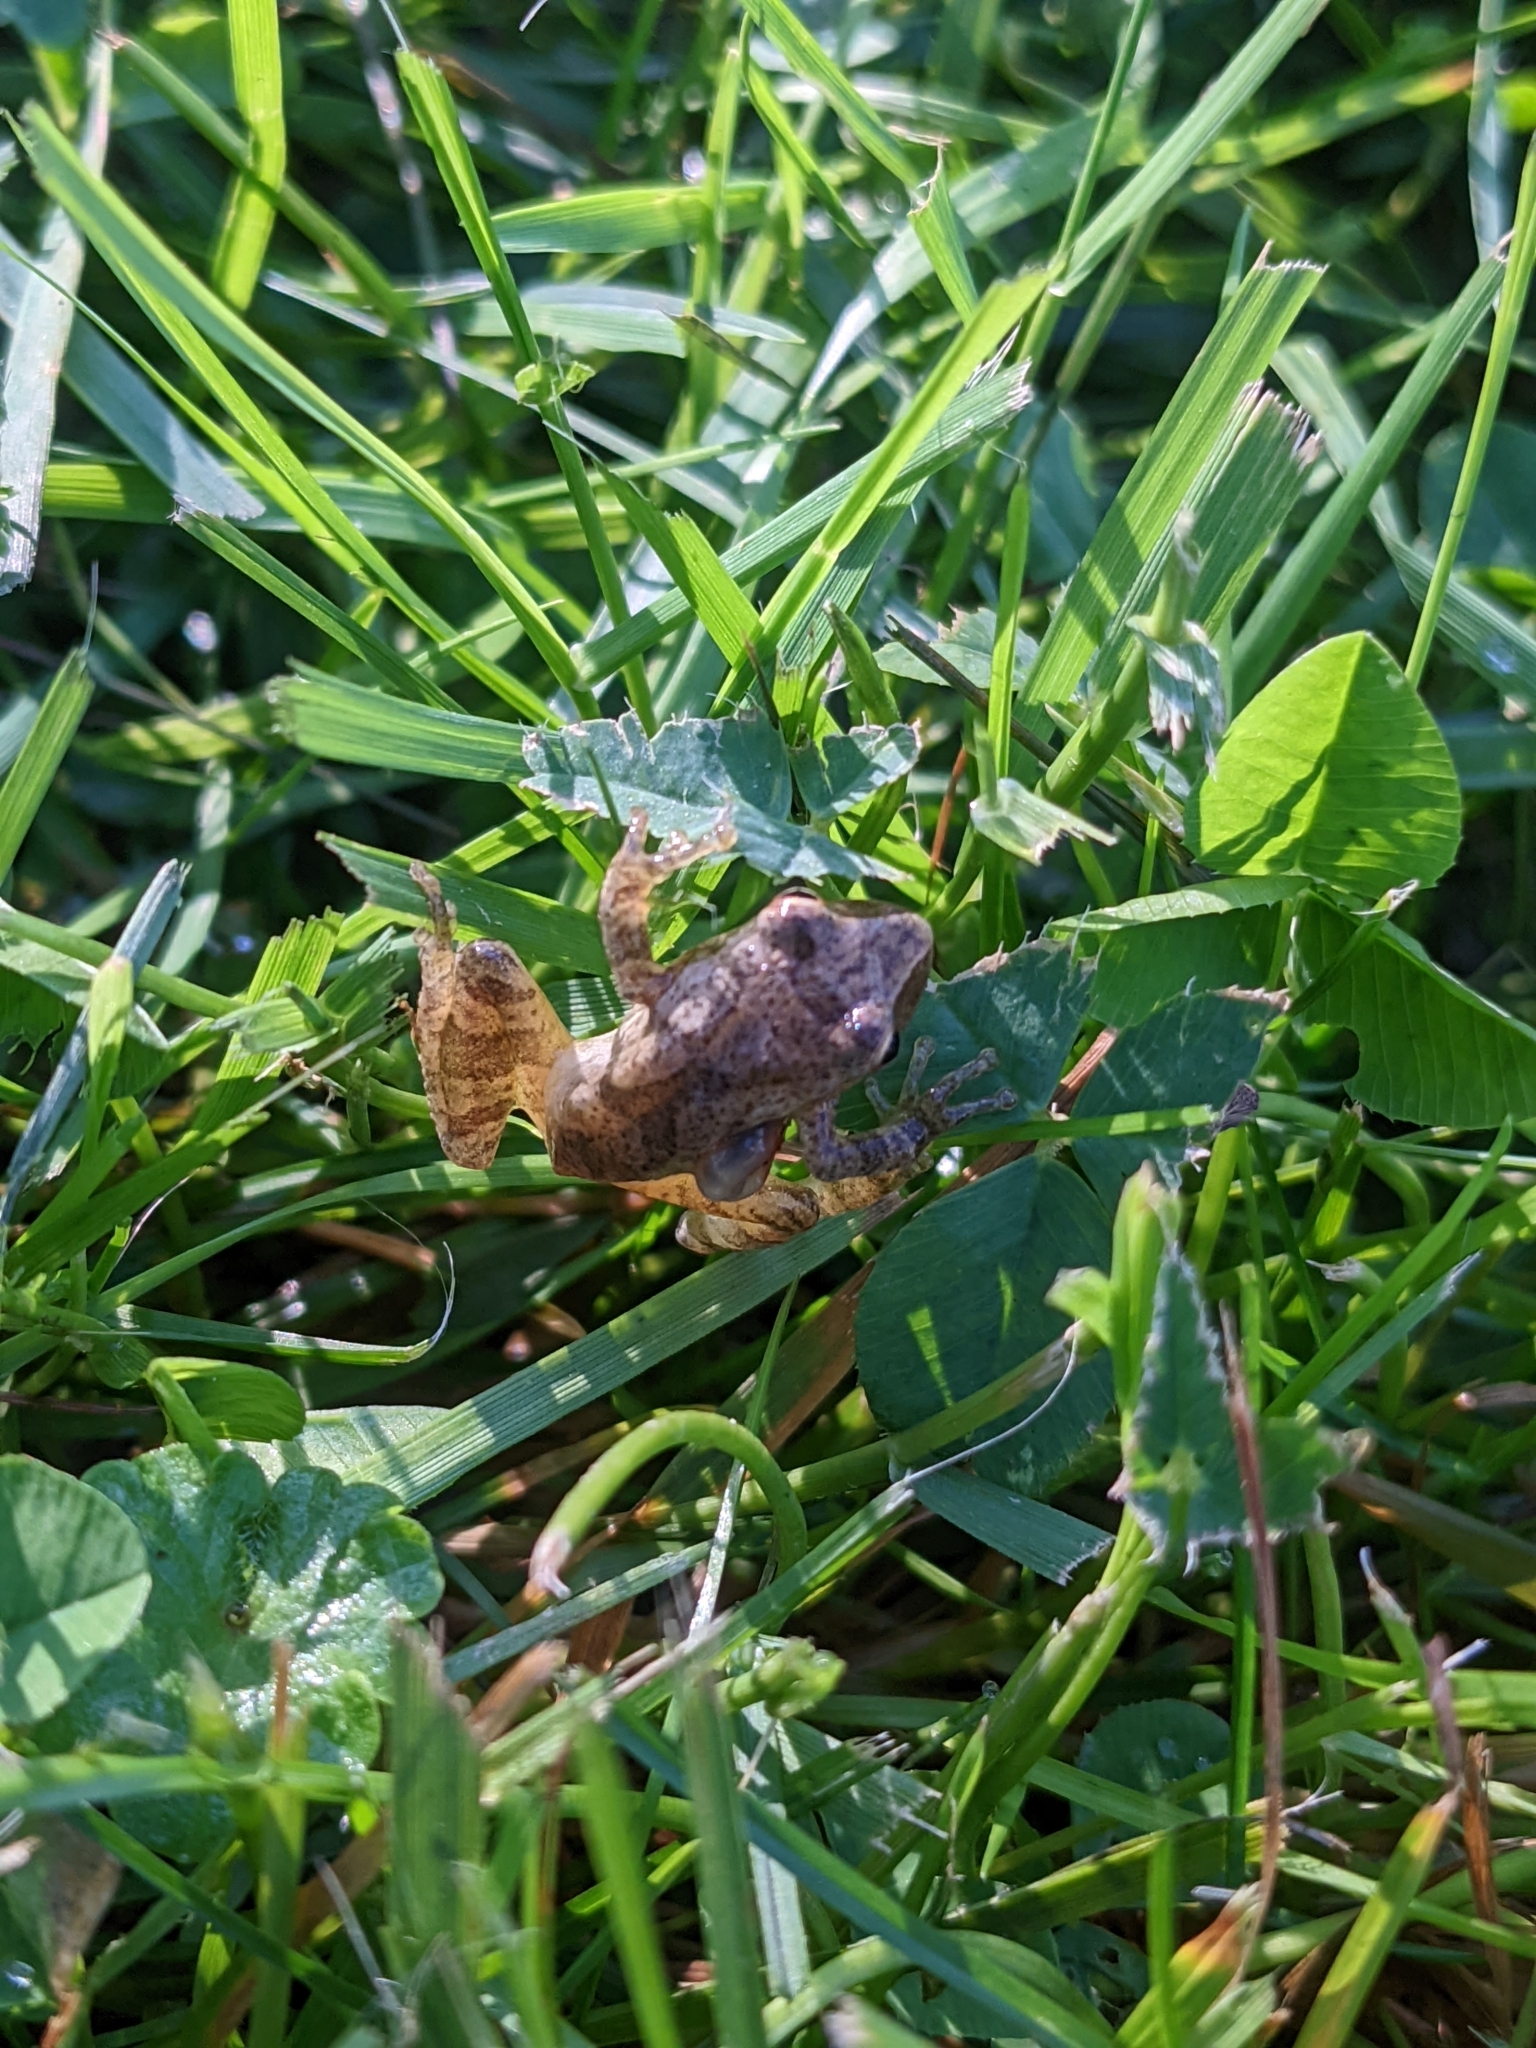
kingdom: Animalia
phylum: Chordata
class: Amphibia
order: Anura
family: Hylidae
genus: Pseudacris
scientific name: Pseudacris crucifer
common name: Spring peeper
